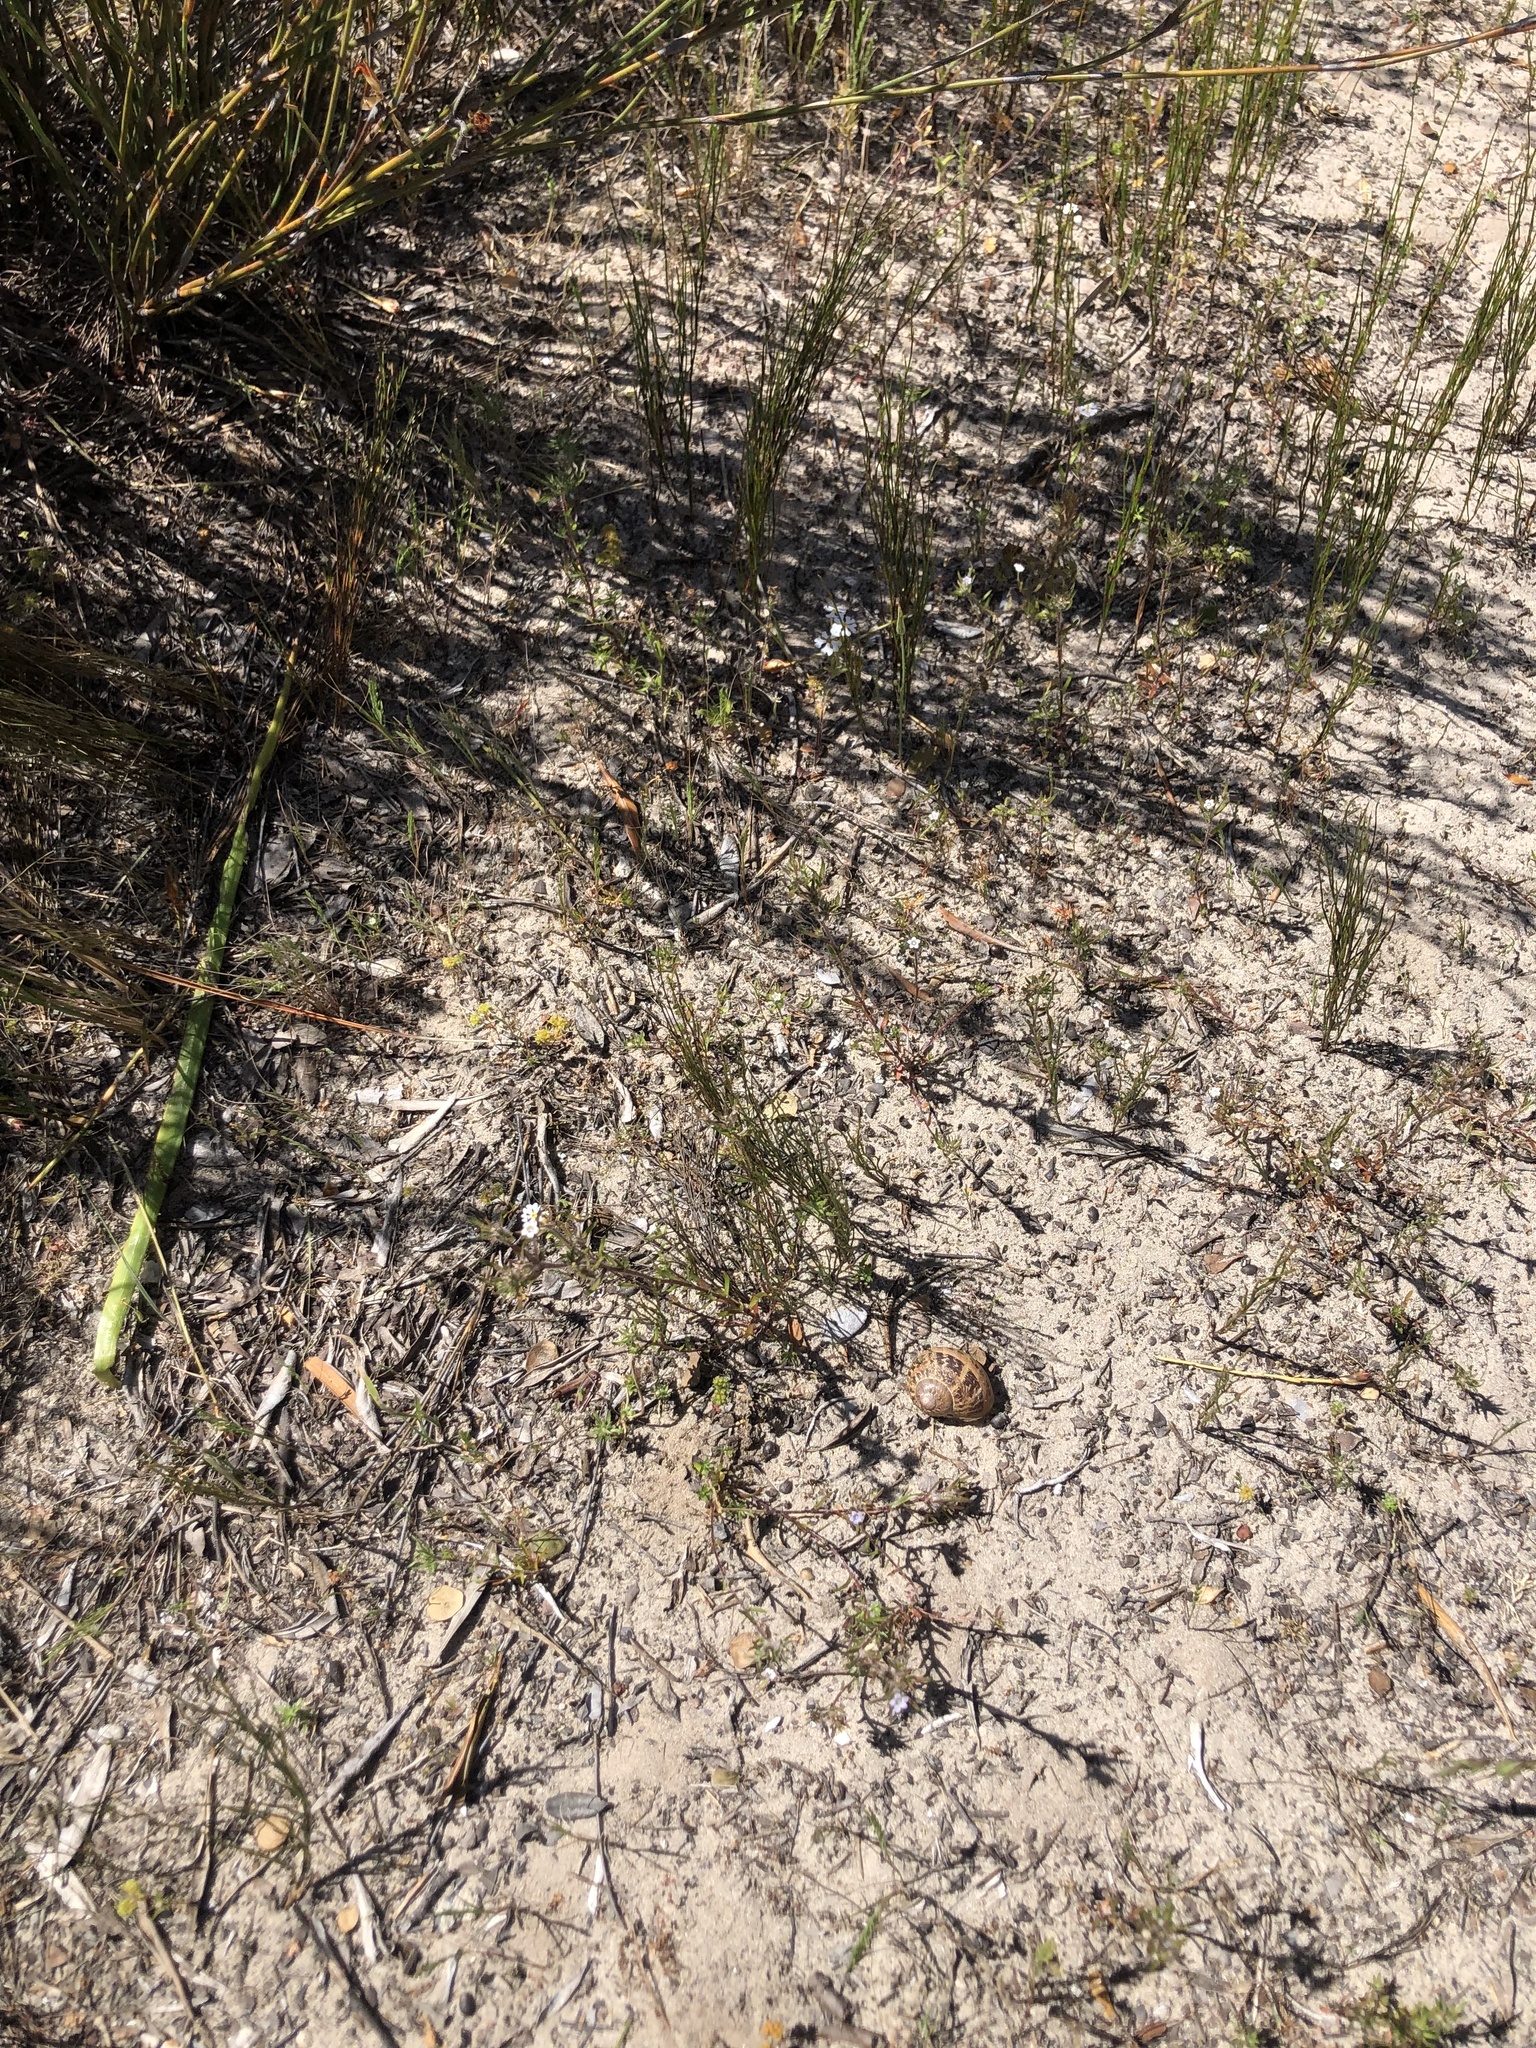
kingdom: Animalia
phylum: Mollusca
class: Gastropoda
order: Stylommatophora
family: Helicidae
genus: Cornu
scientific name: Cornu aspersum
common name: Brown garden snail
